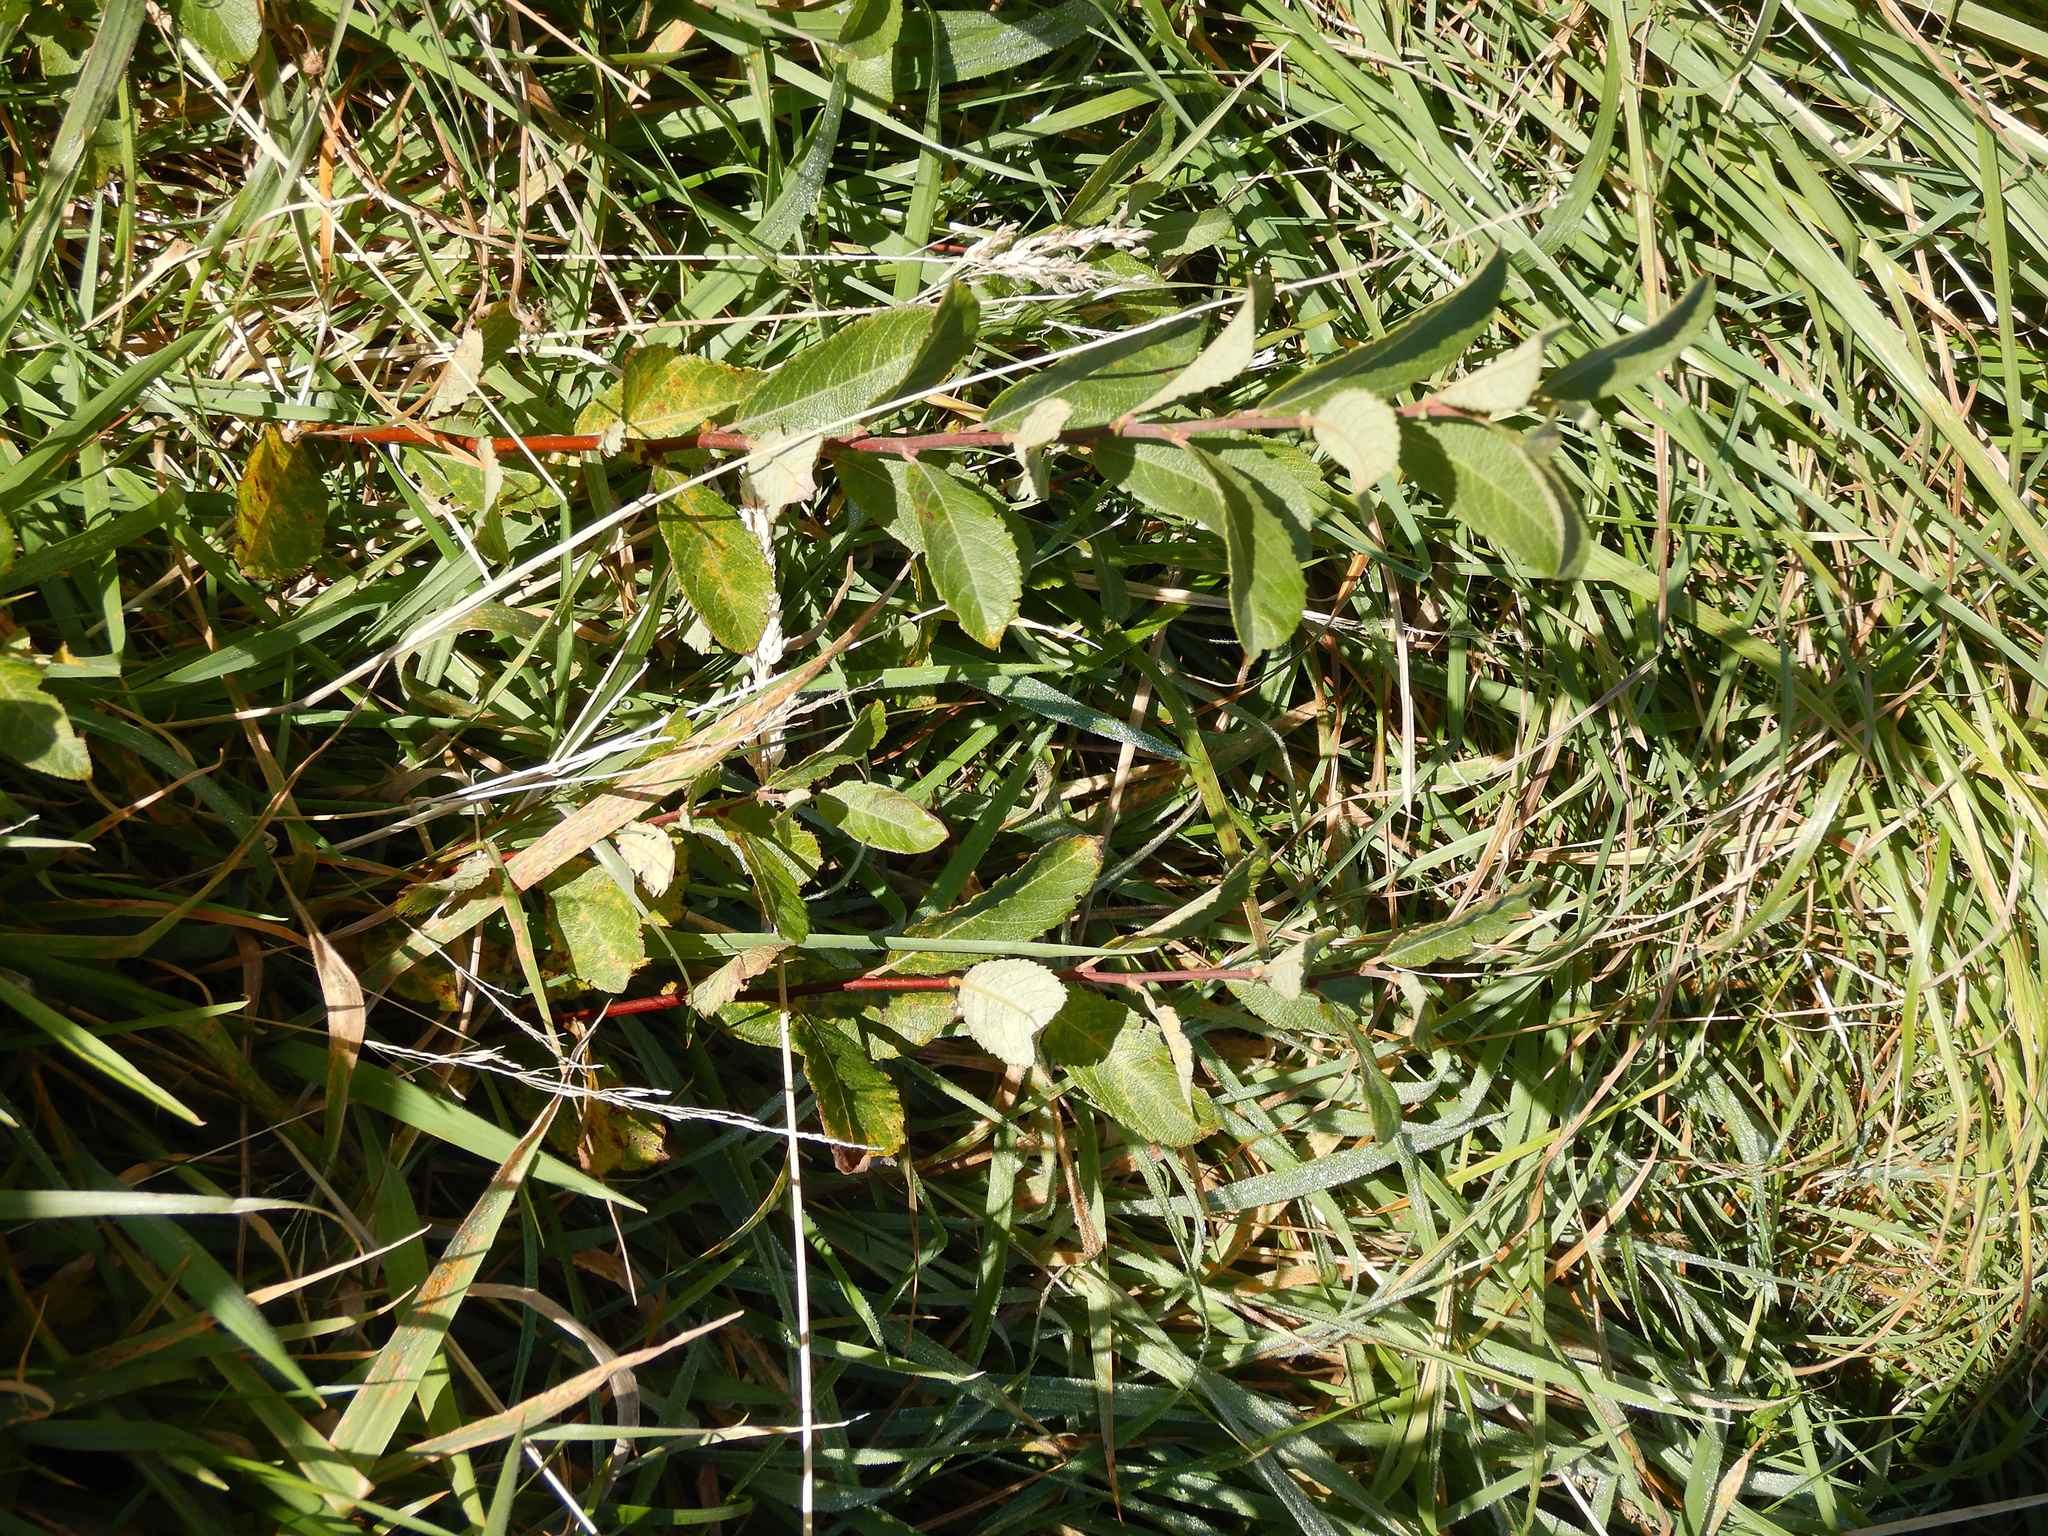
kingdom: Plantae
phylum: Tracheophyta
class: Magnoliopsida
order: Malpighiales
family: Salicaceae
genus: Salix
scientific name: Salix cinerea
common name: Common sallow
